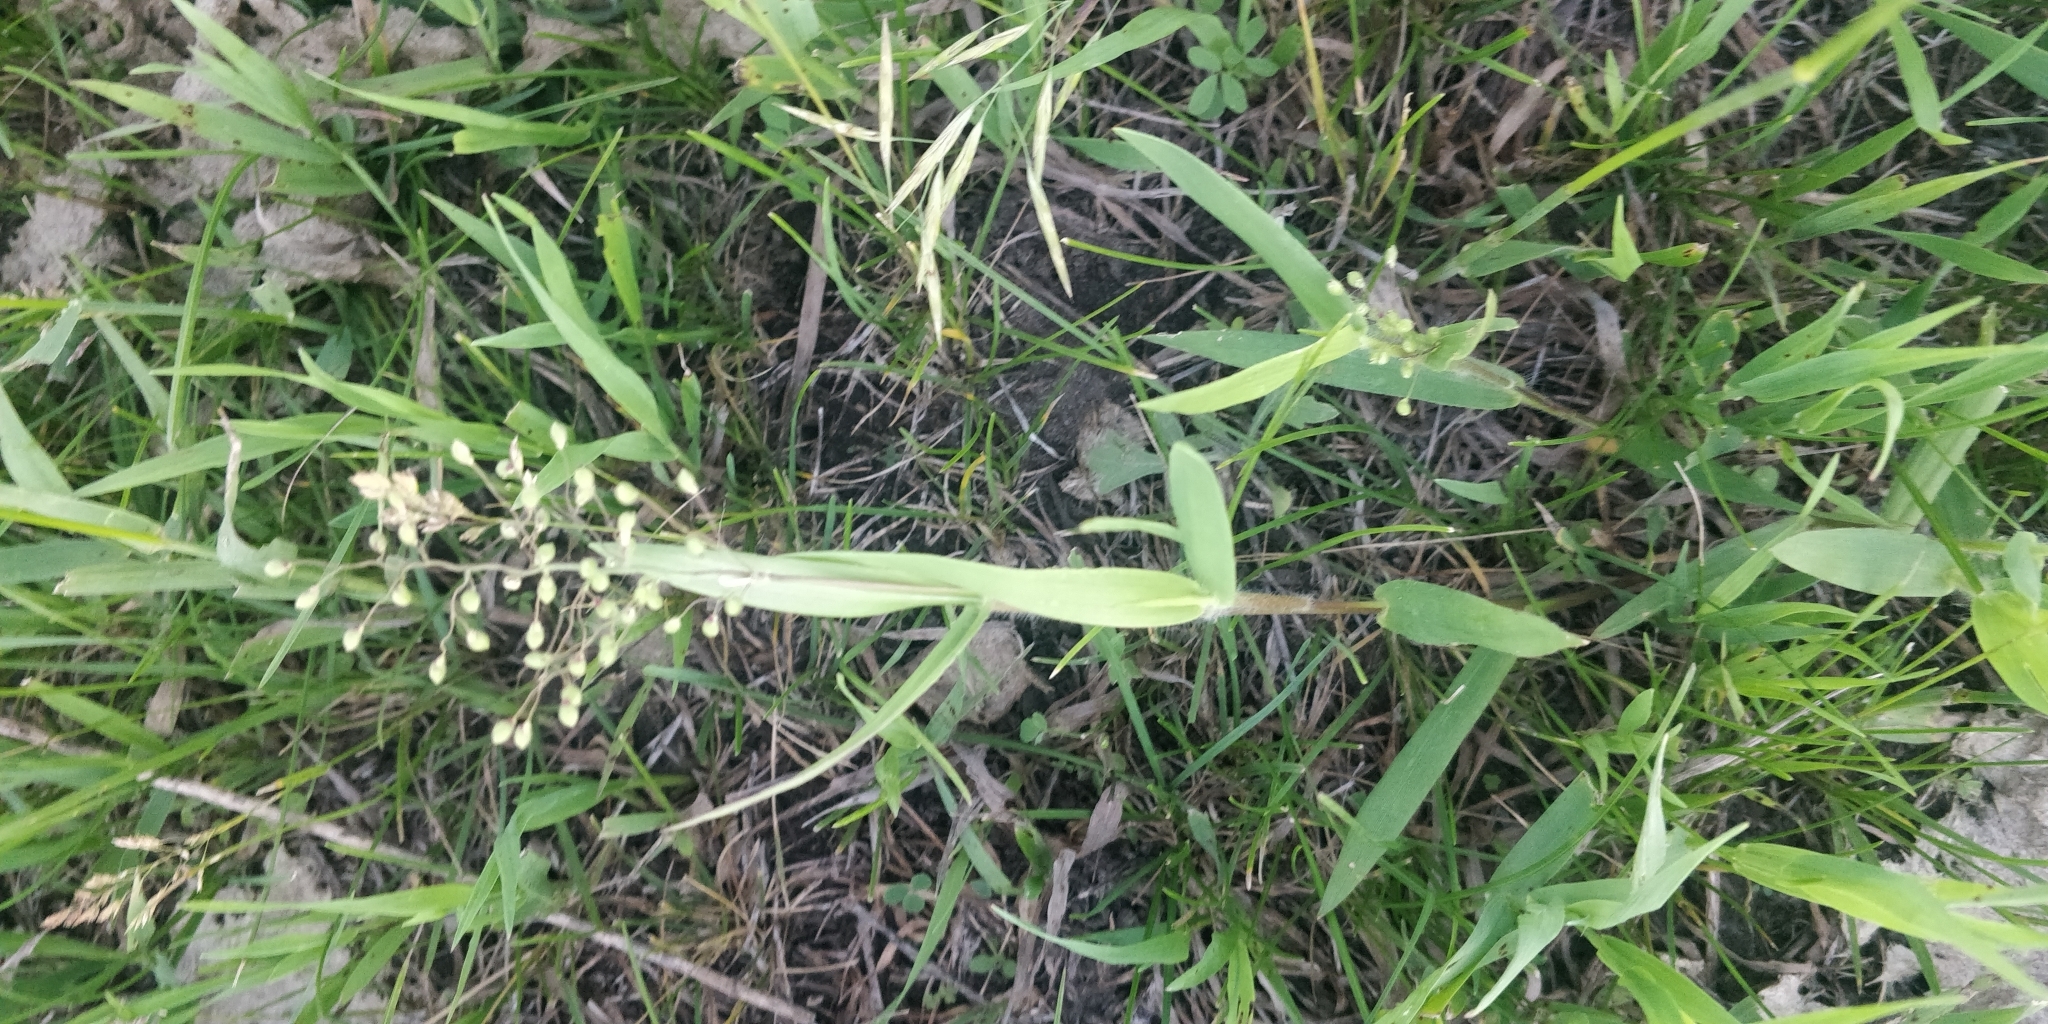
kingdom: Plantae
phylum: Tracheophyta
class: Liliopsida
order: Poales
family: Poaceae
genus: Dichanthelium
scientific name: Dichanthelium oligosanthes
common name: Few-anther obscuregrass
